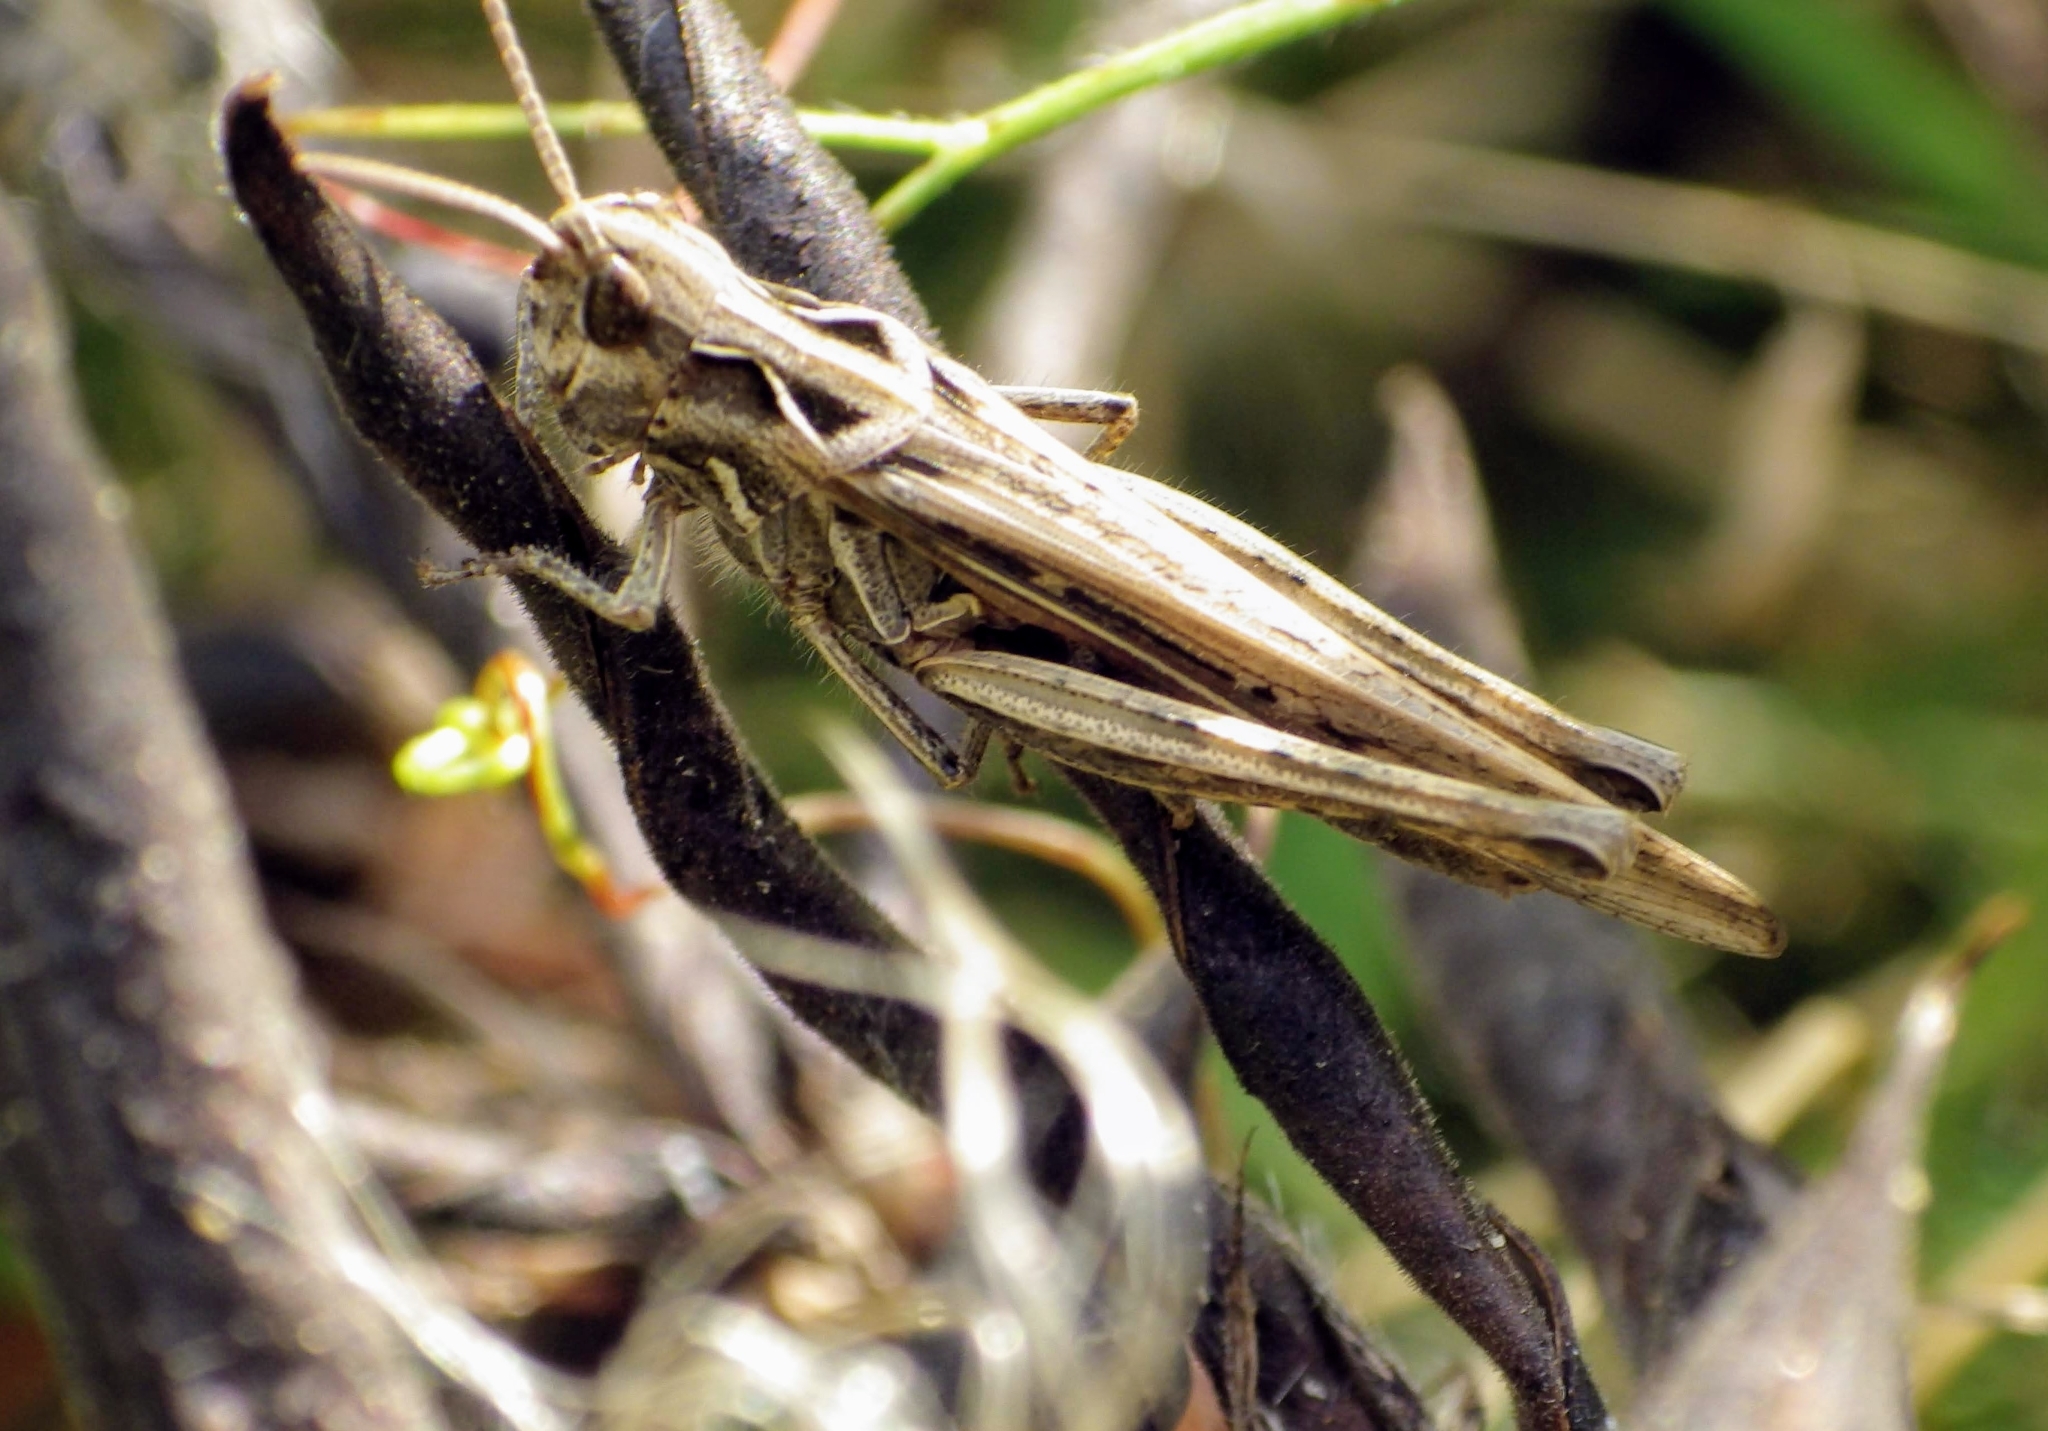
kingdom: Animalia
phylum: Arthropoda
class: Insecta
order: Orthoptera
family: Acrididae
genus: Chorthippus
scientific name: Chorthippus brunneus
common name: Field grasshopper
